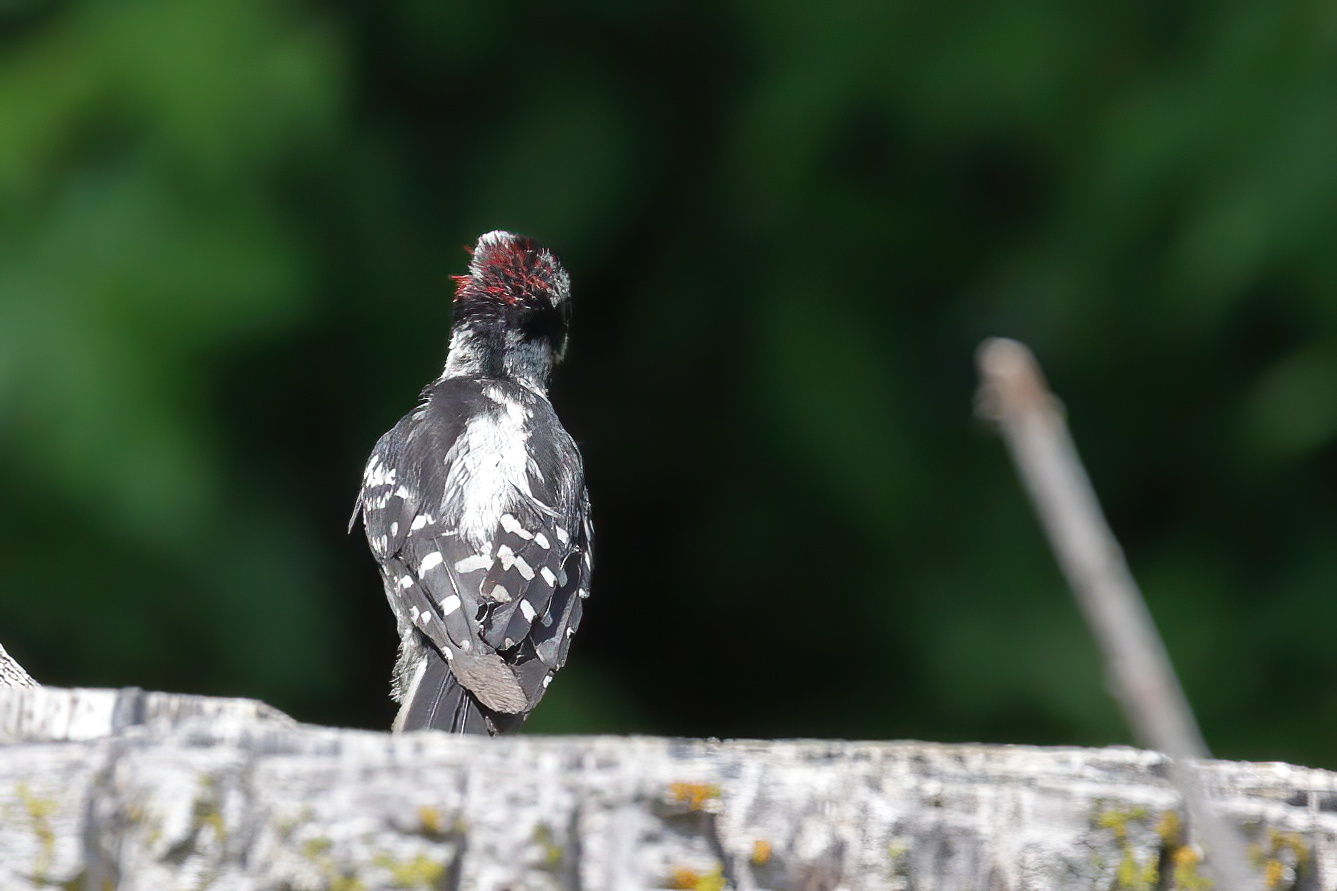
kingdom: Animalia
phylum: Chordata
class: Aves
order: Piciformes
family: Picidae
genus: Dryobates
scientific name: Dryobates pubescens
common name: Downy woodpecker
